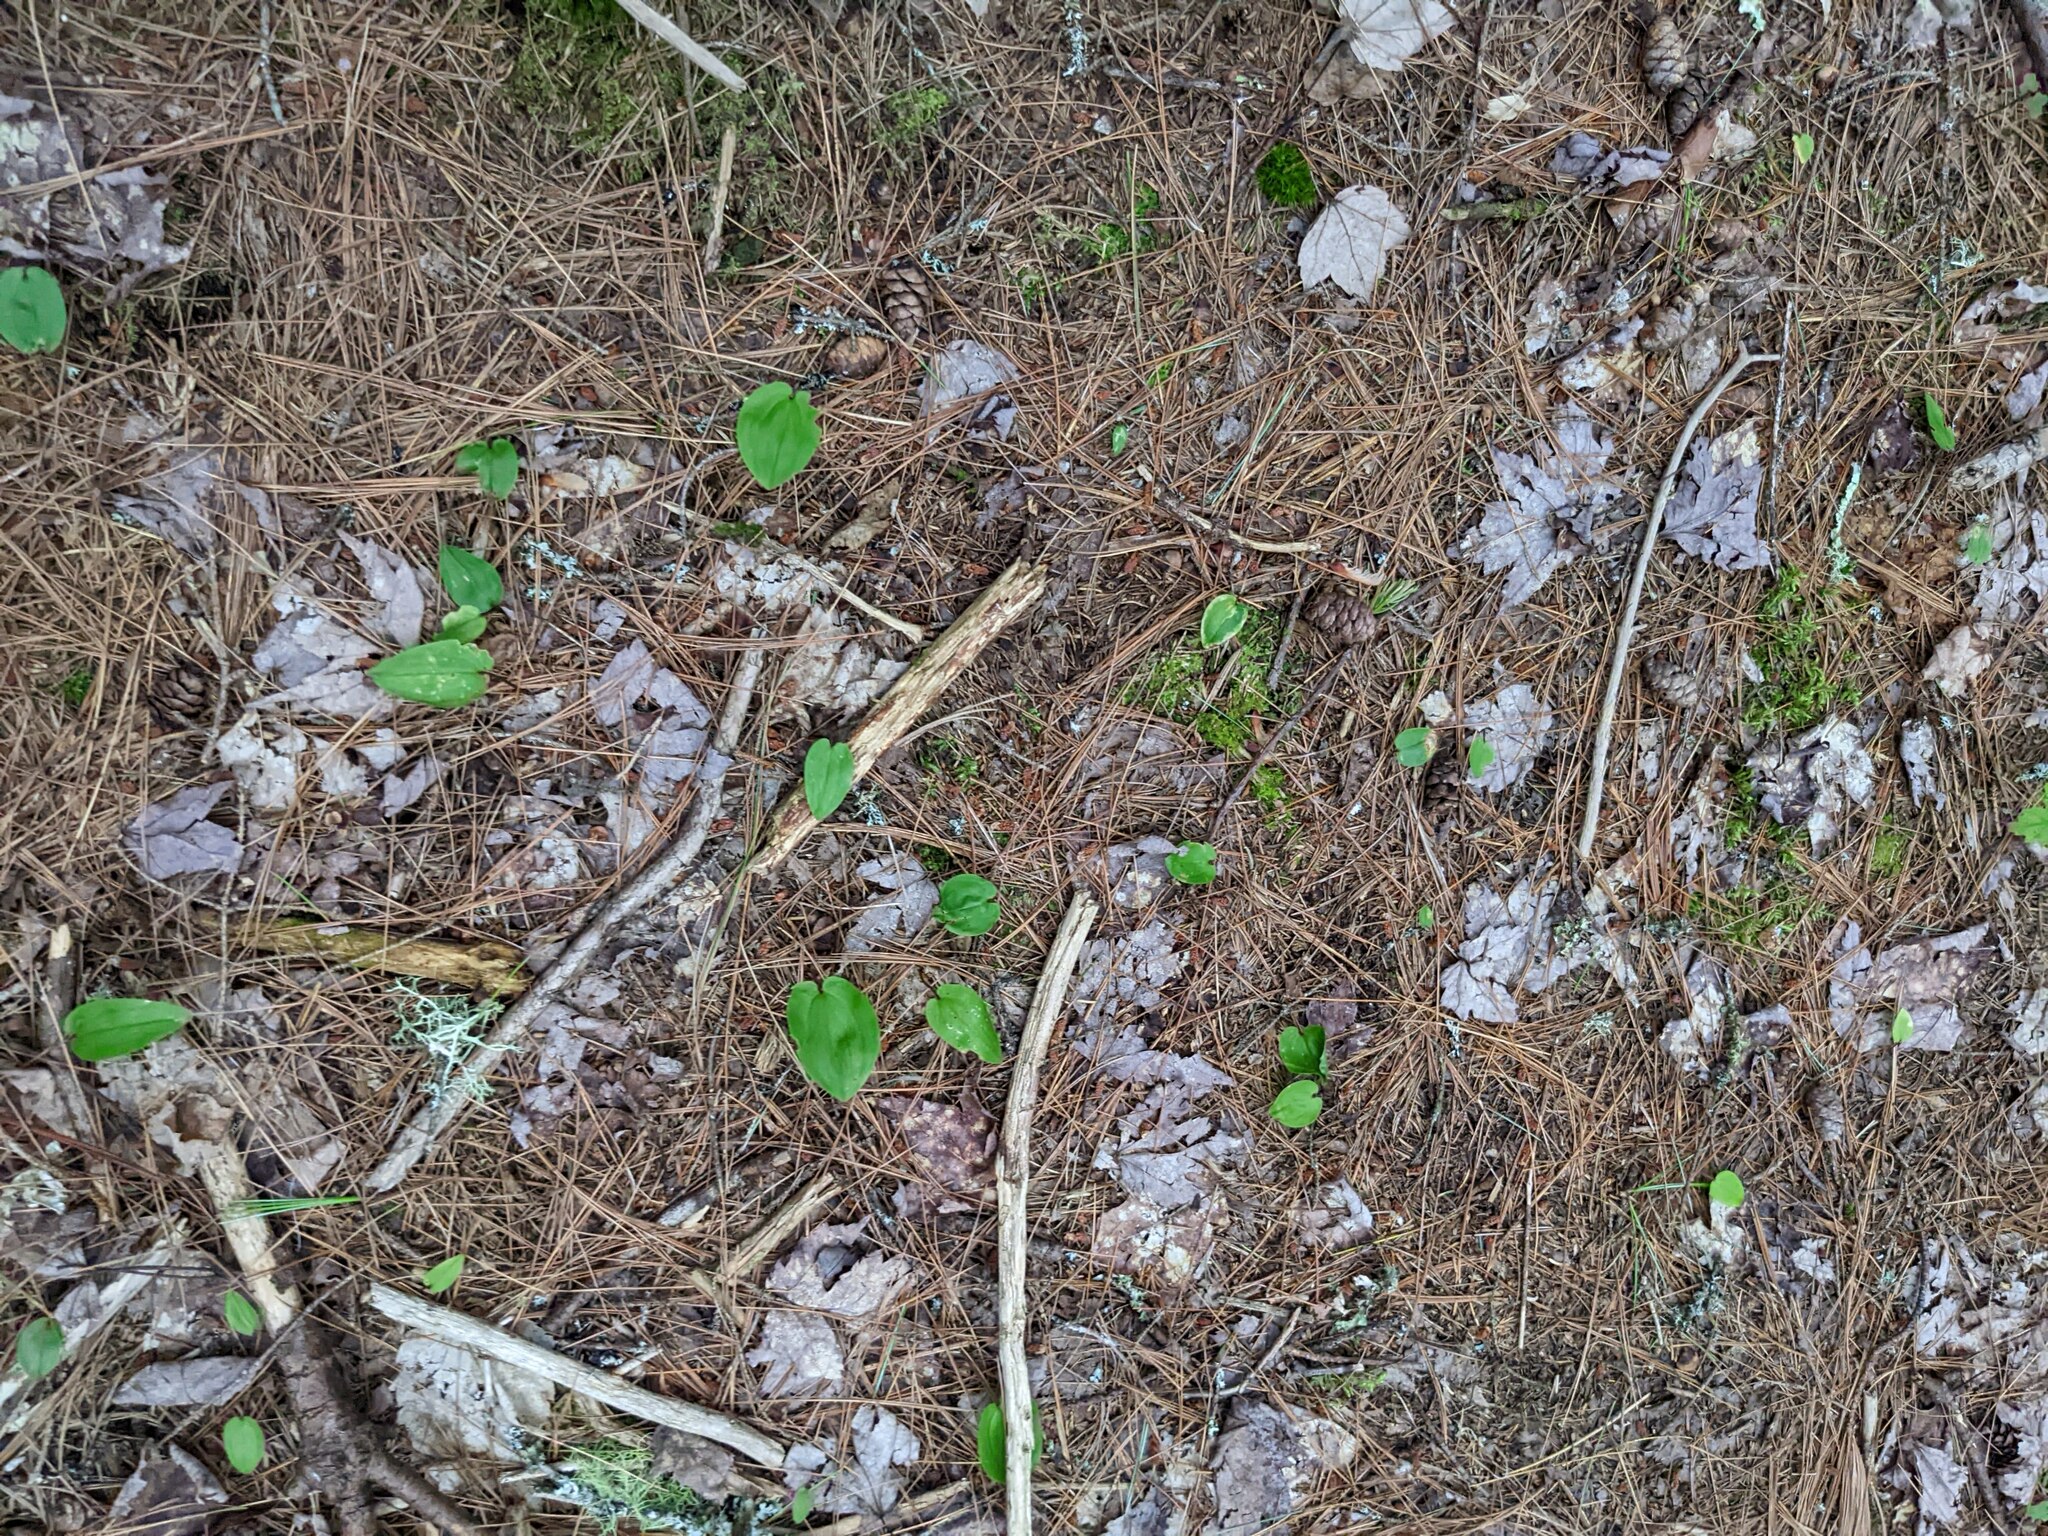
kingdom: Plantae
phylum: Tracheophyta
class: Liliopsida
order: Asparagales
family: Asparagaceae
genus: Maianthemum
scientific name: Maianthemum canadense
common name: False lily-of-the-valley
